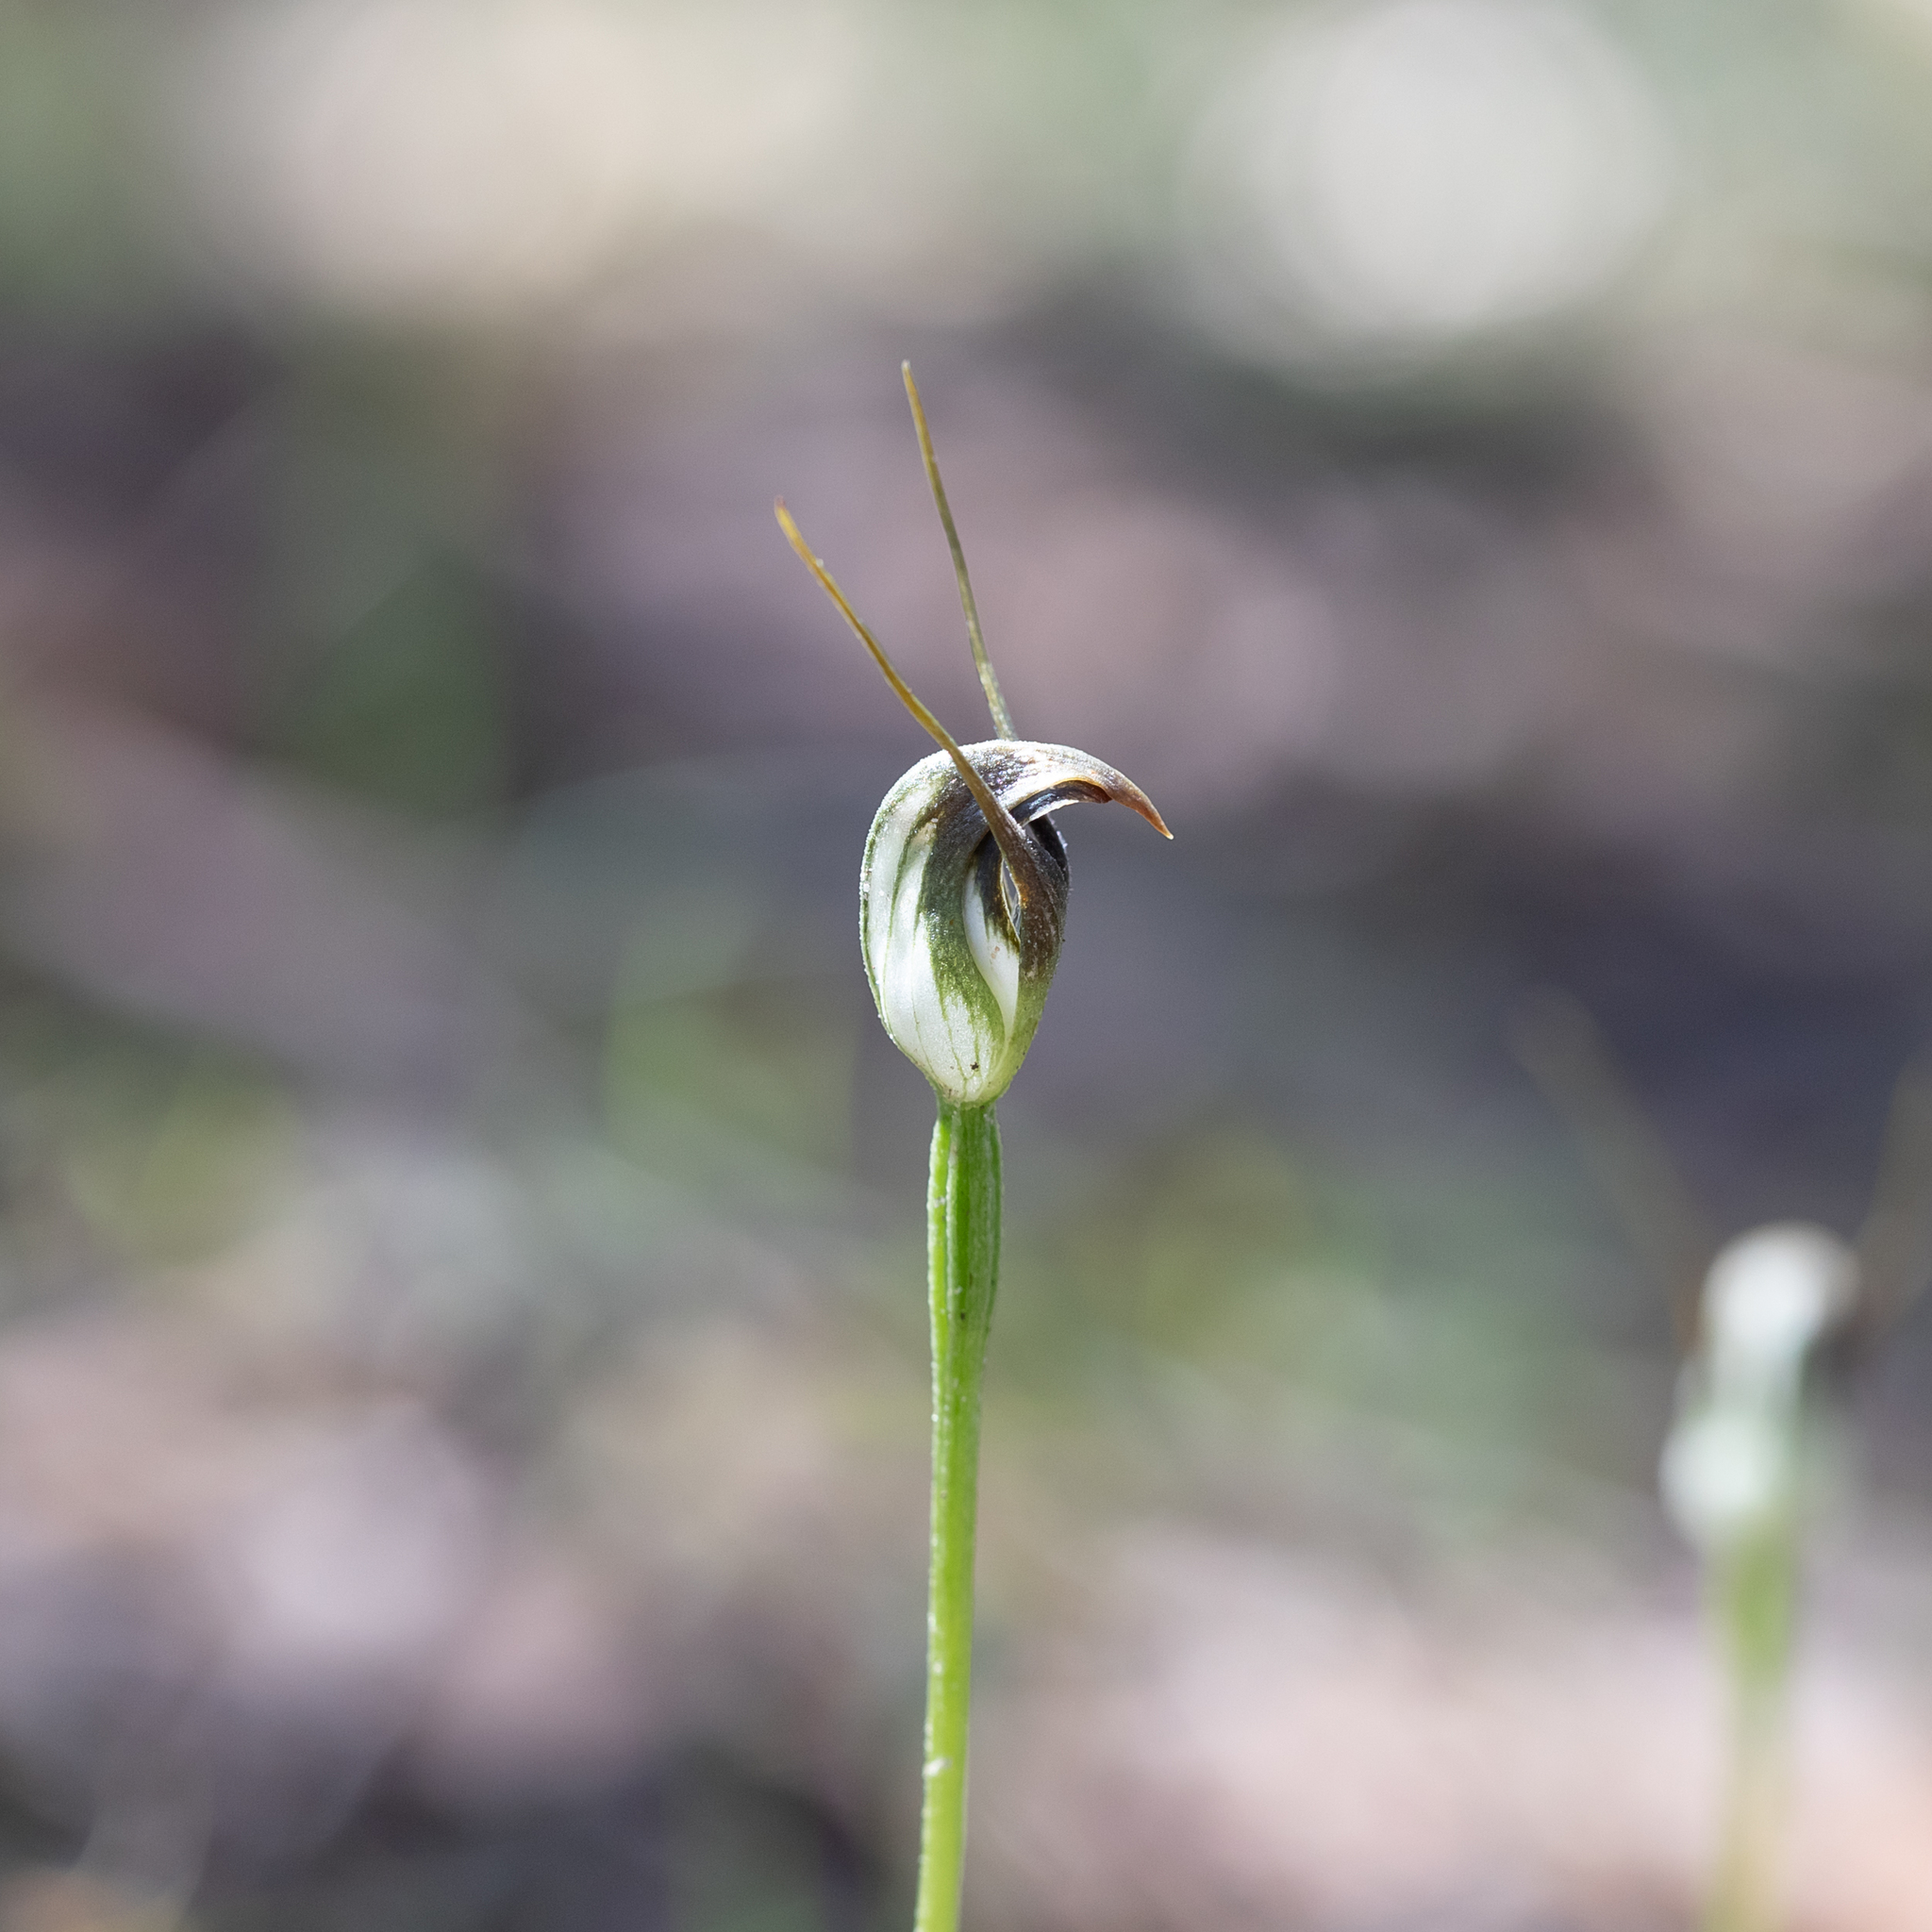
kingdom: Plantae
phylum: Tracheophyta
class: Liliopsida
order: Asparagales
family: Orchidaceae
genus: Pterostylis
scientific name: Pterostylis pedunculata
